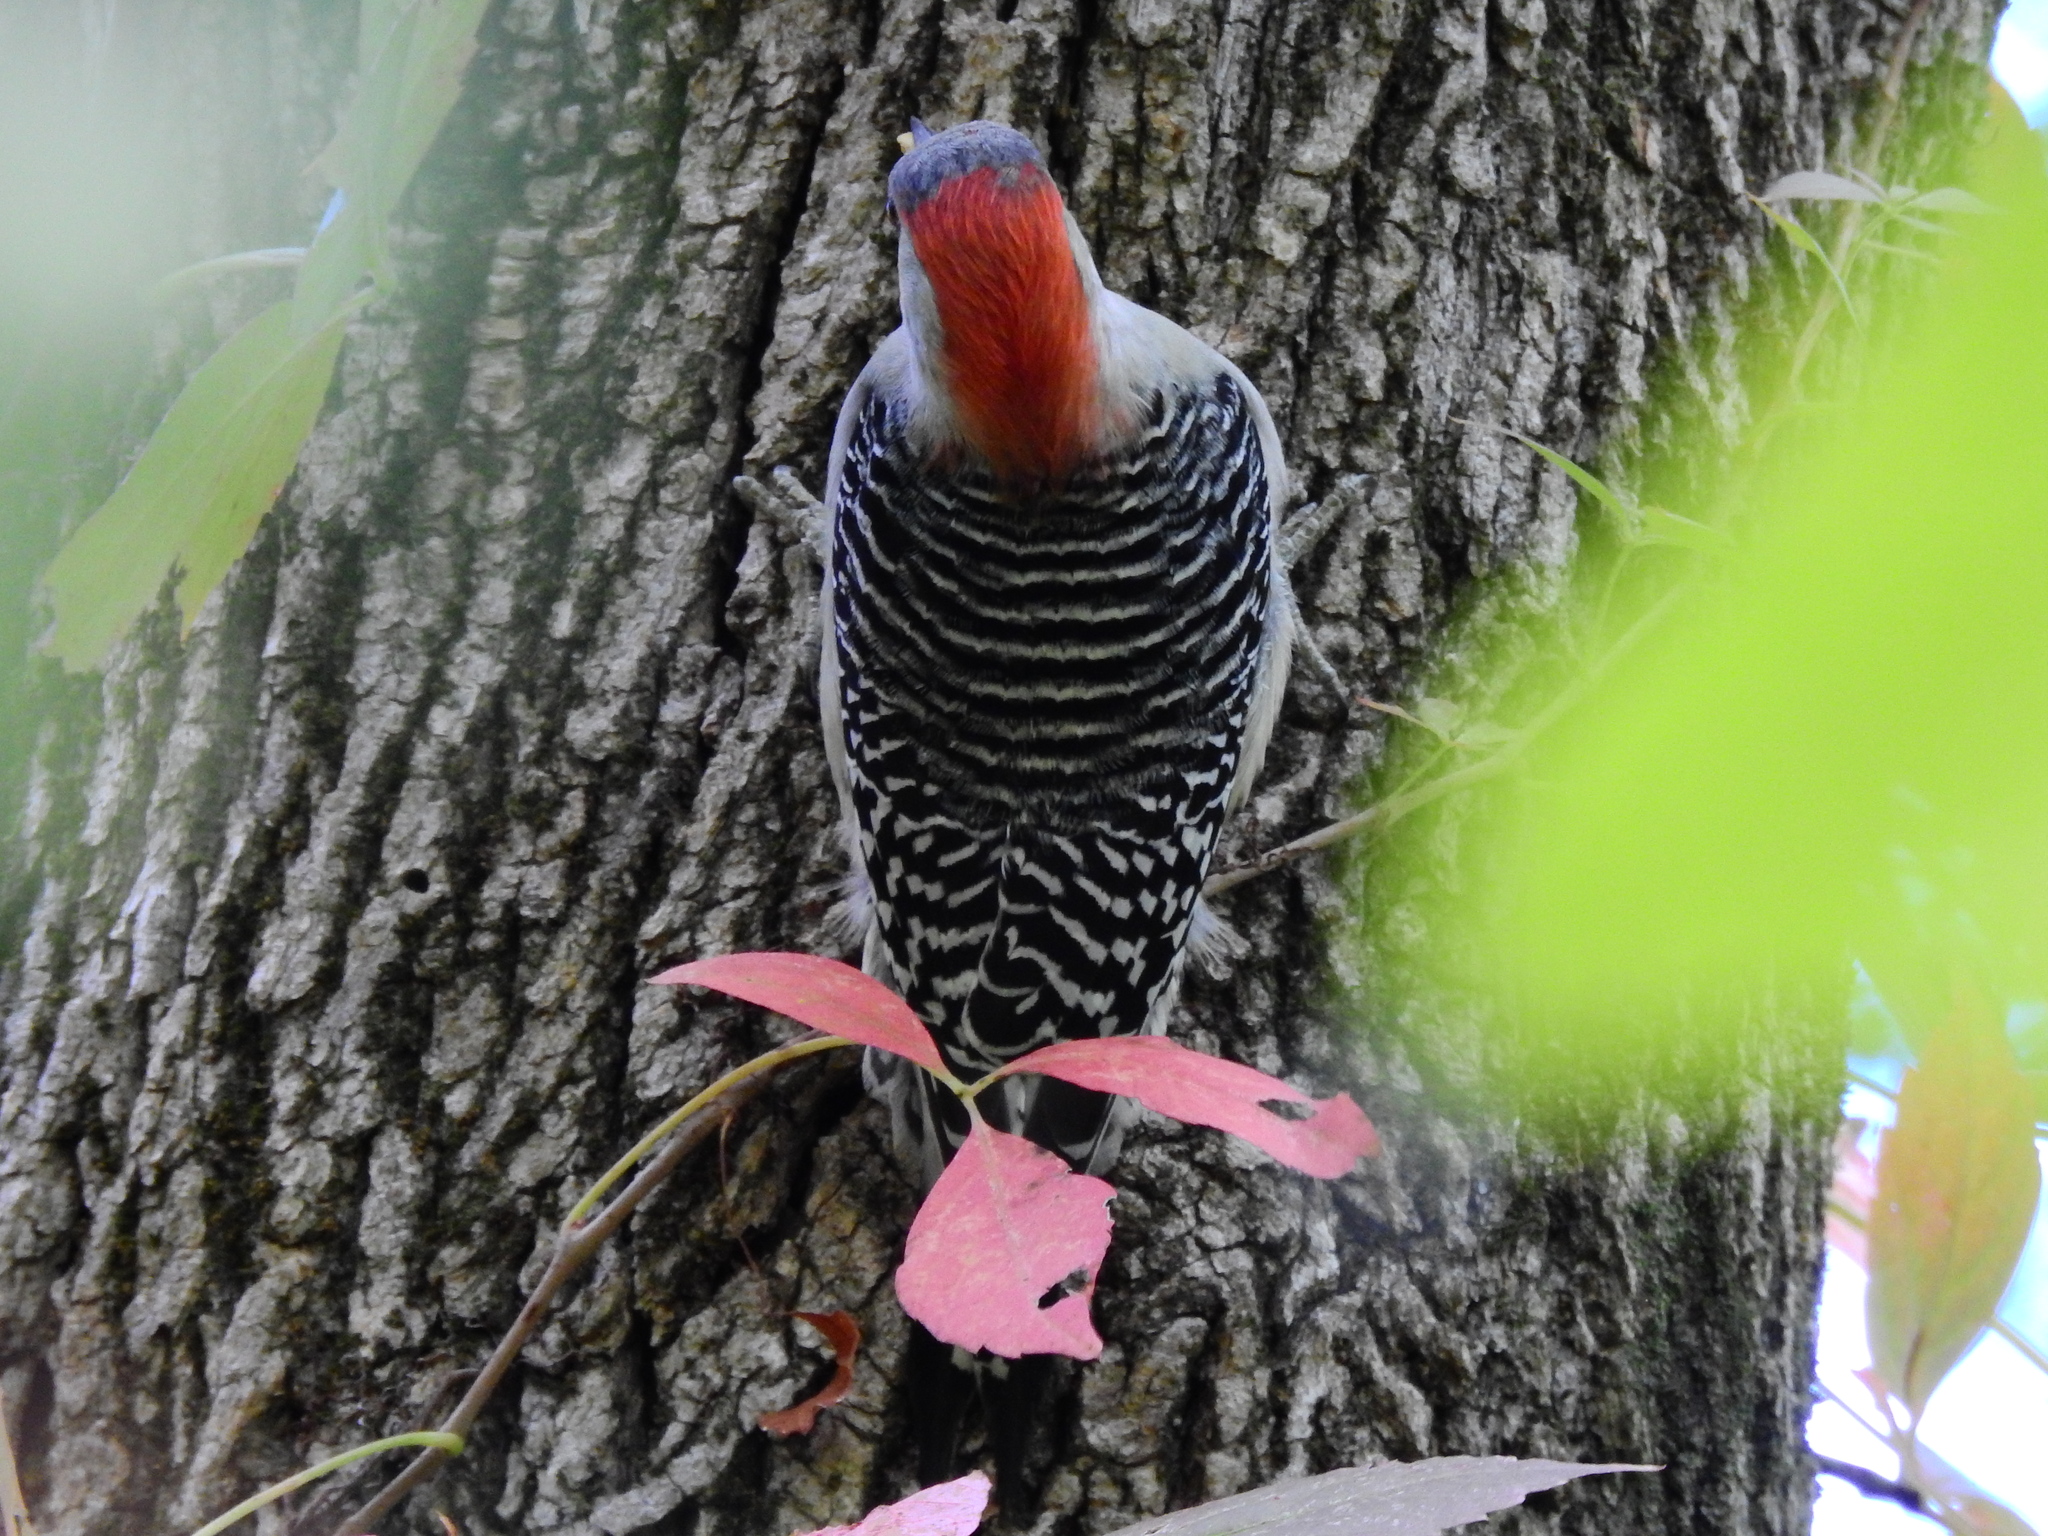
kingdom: Animalia
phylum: Chordata
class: Aves
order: Piciformes
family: Picidae
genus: Melanerpes
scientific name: Melanerpes carolinus
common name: Red-bellied woodpecker
